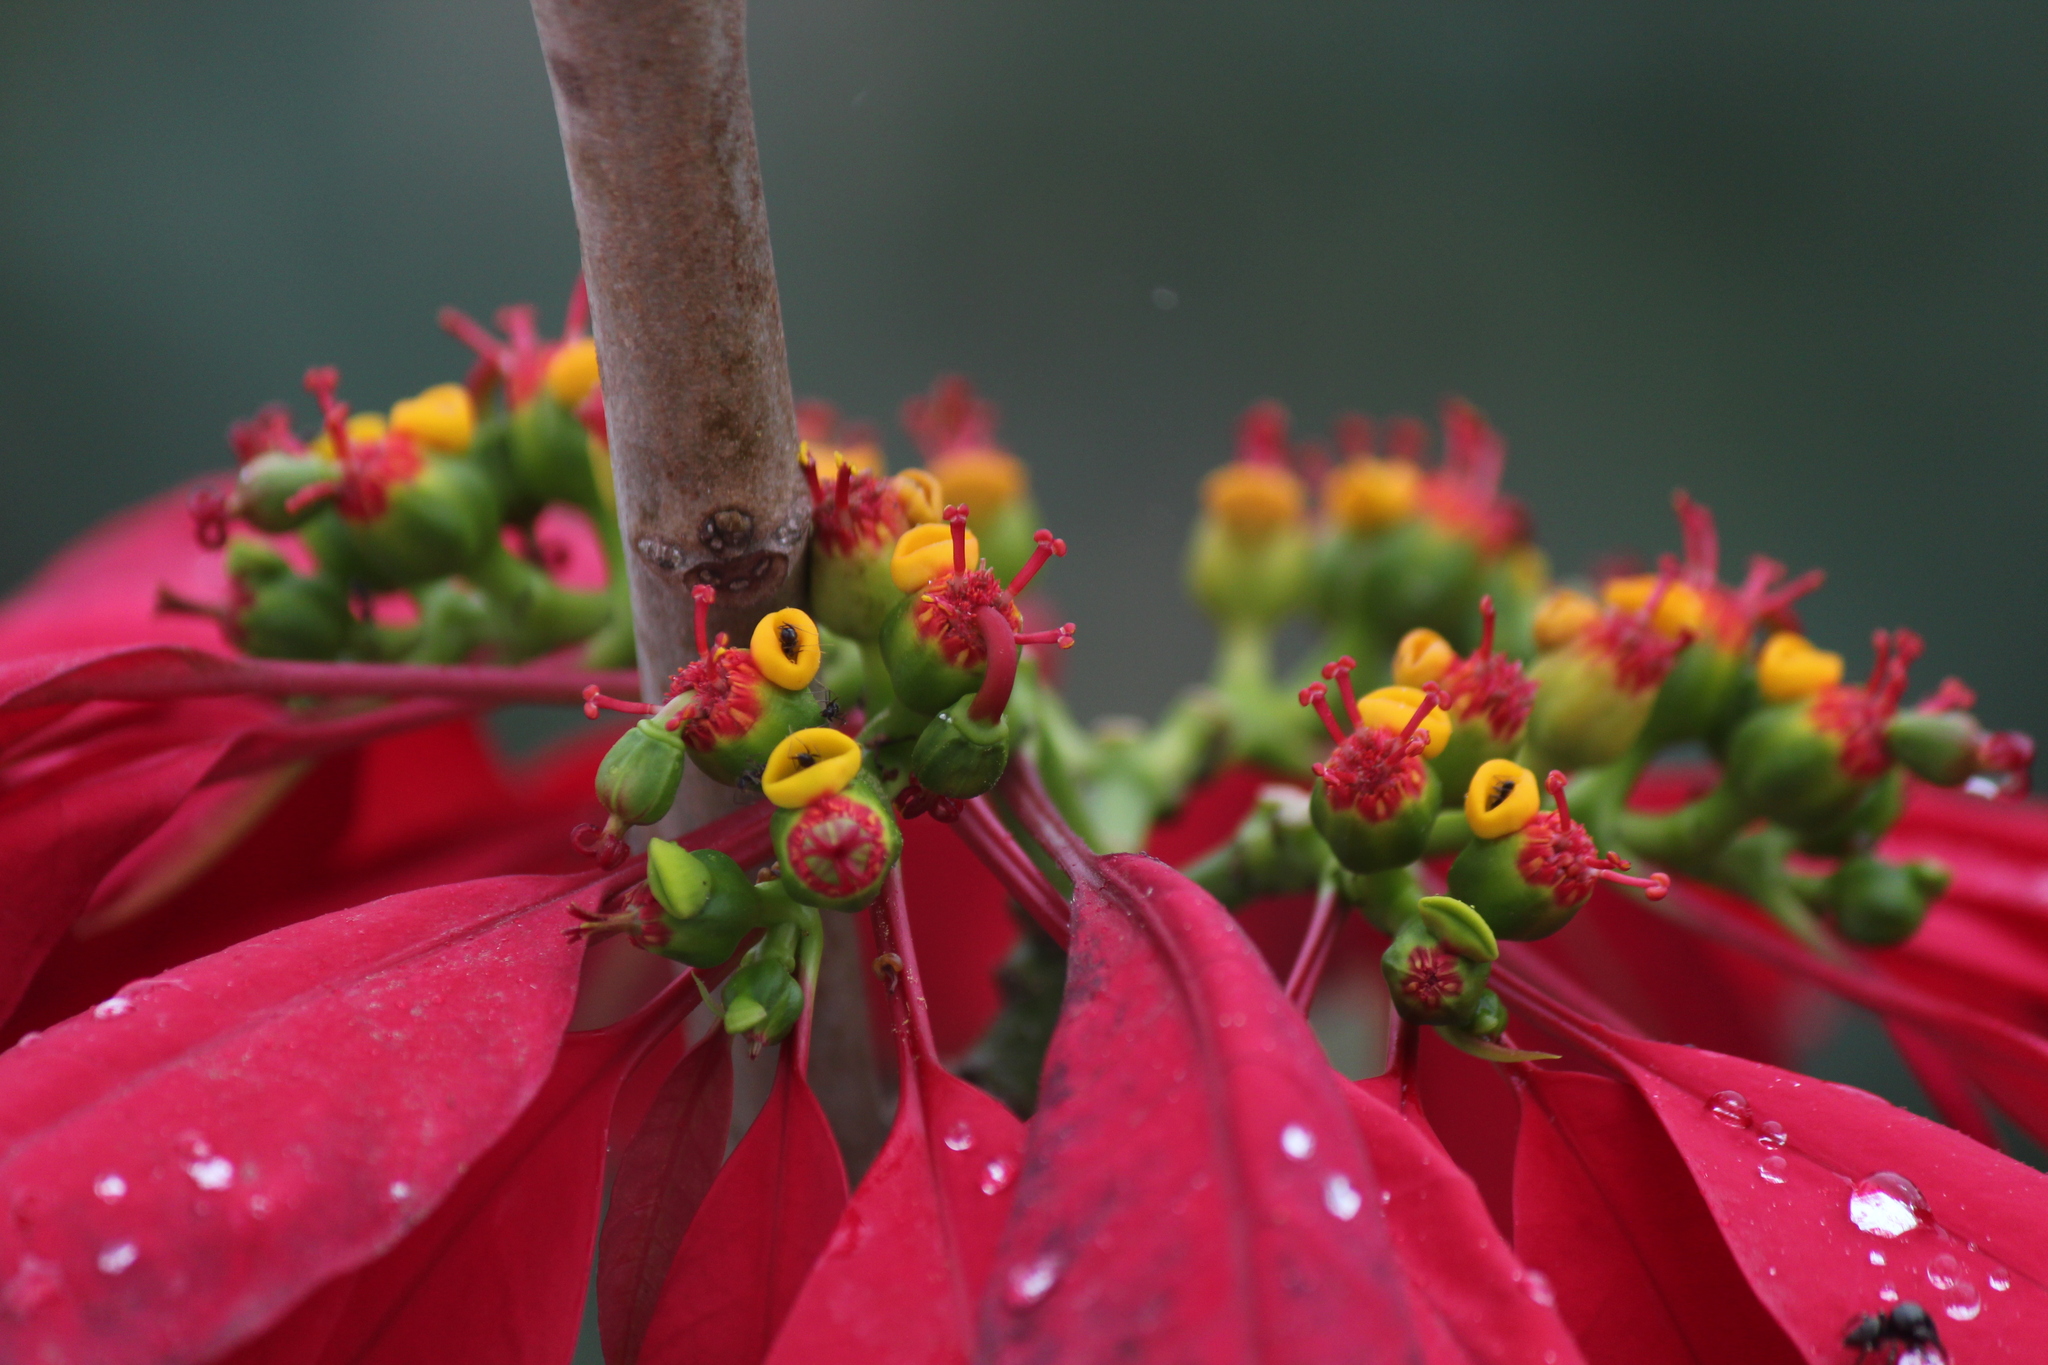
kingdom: Plantae
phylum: Tracheophyta
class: Magnoliopsida
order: Malpighiales
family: Euphorbiaceae
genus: Euphorbia
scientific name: Euphorbia pulcherrima
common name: Christmas-flower
